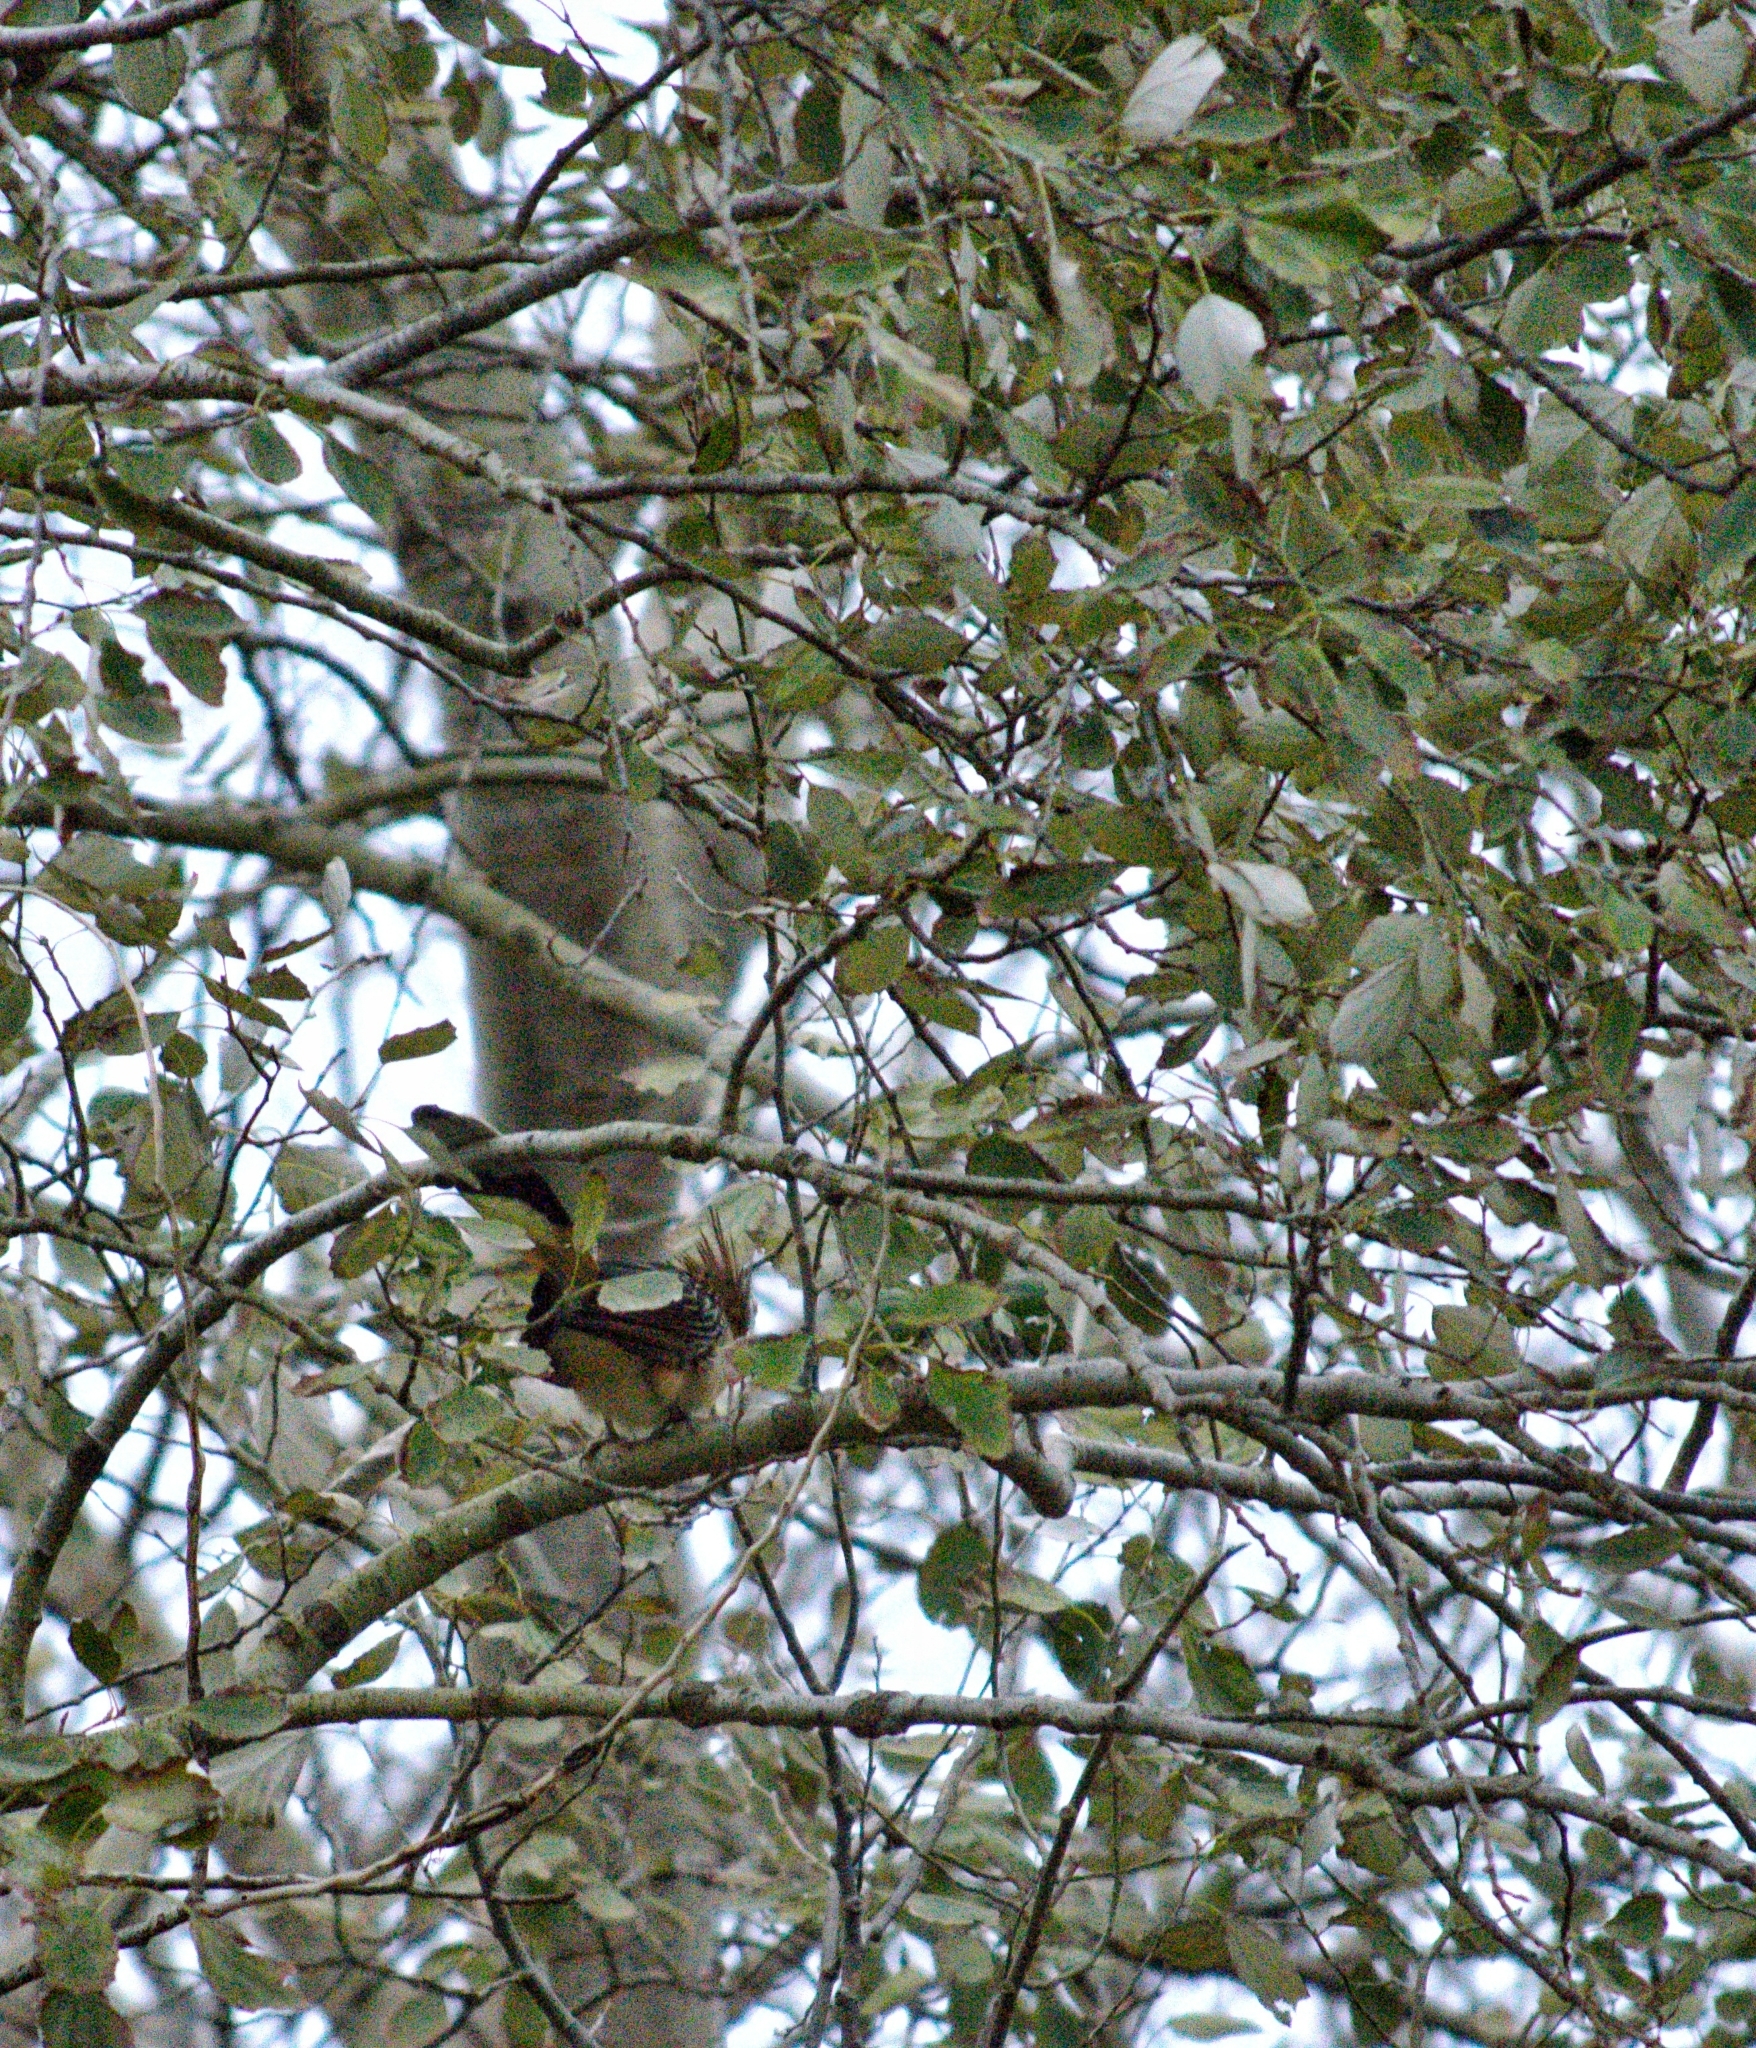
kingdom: Animalia
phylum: Chordata
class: Aves
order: Cuculiformes
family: Cuculidae
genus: Guira
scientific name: Guira guira
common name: Guira cuckoo
